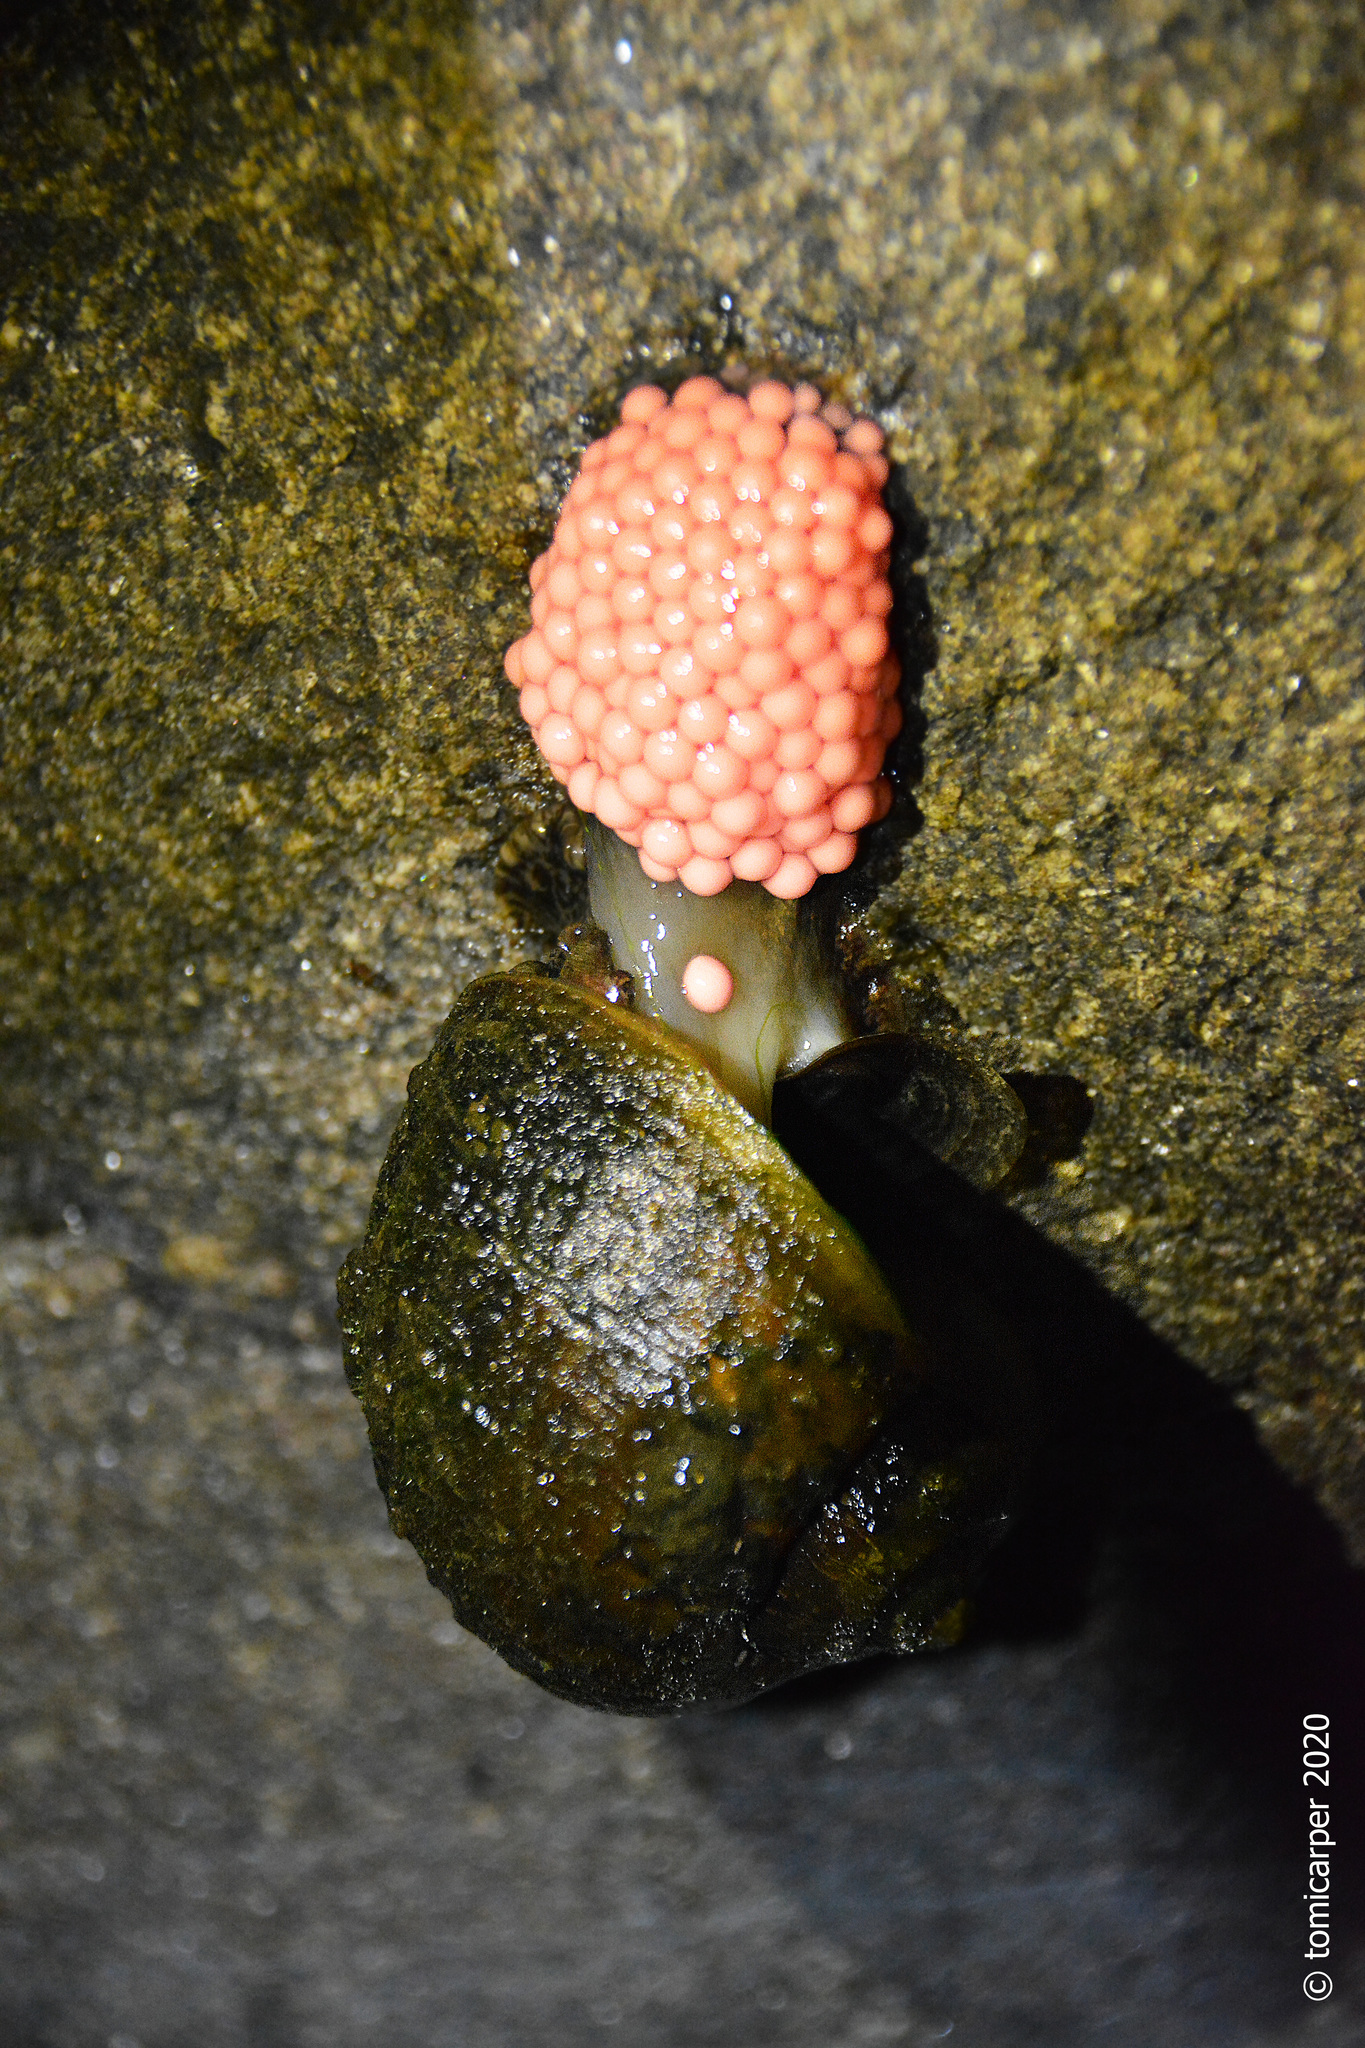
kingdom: Animalia
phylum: Mollusca
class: Gastropoda
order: Architaenioglossa
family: Ampullariidae
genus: Pomacea
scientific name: Pomacea canaliculata
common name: Channeled applesnail
